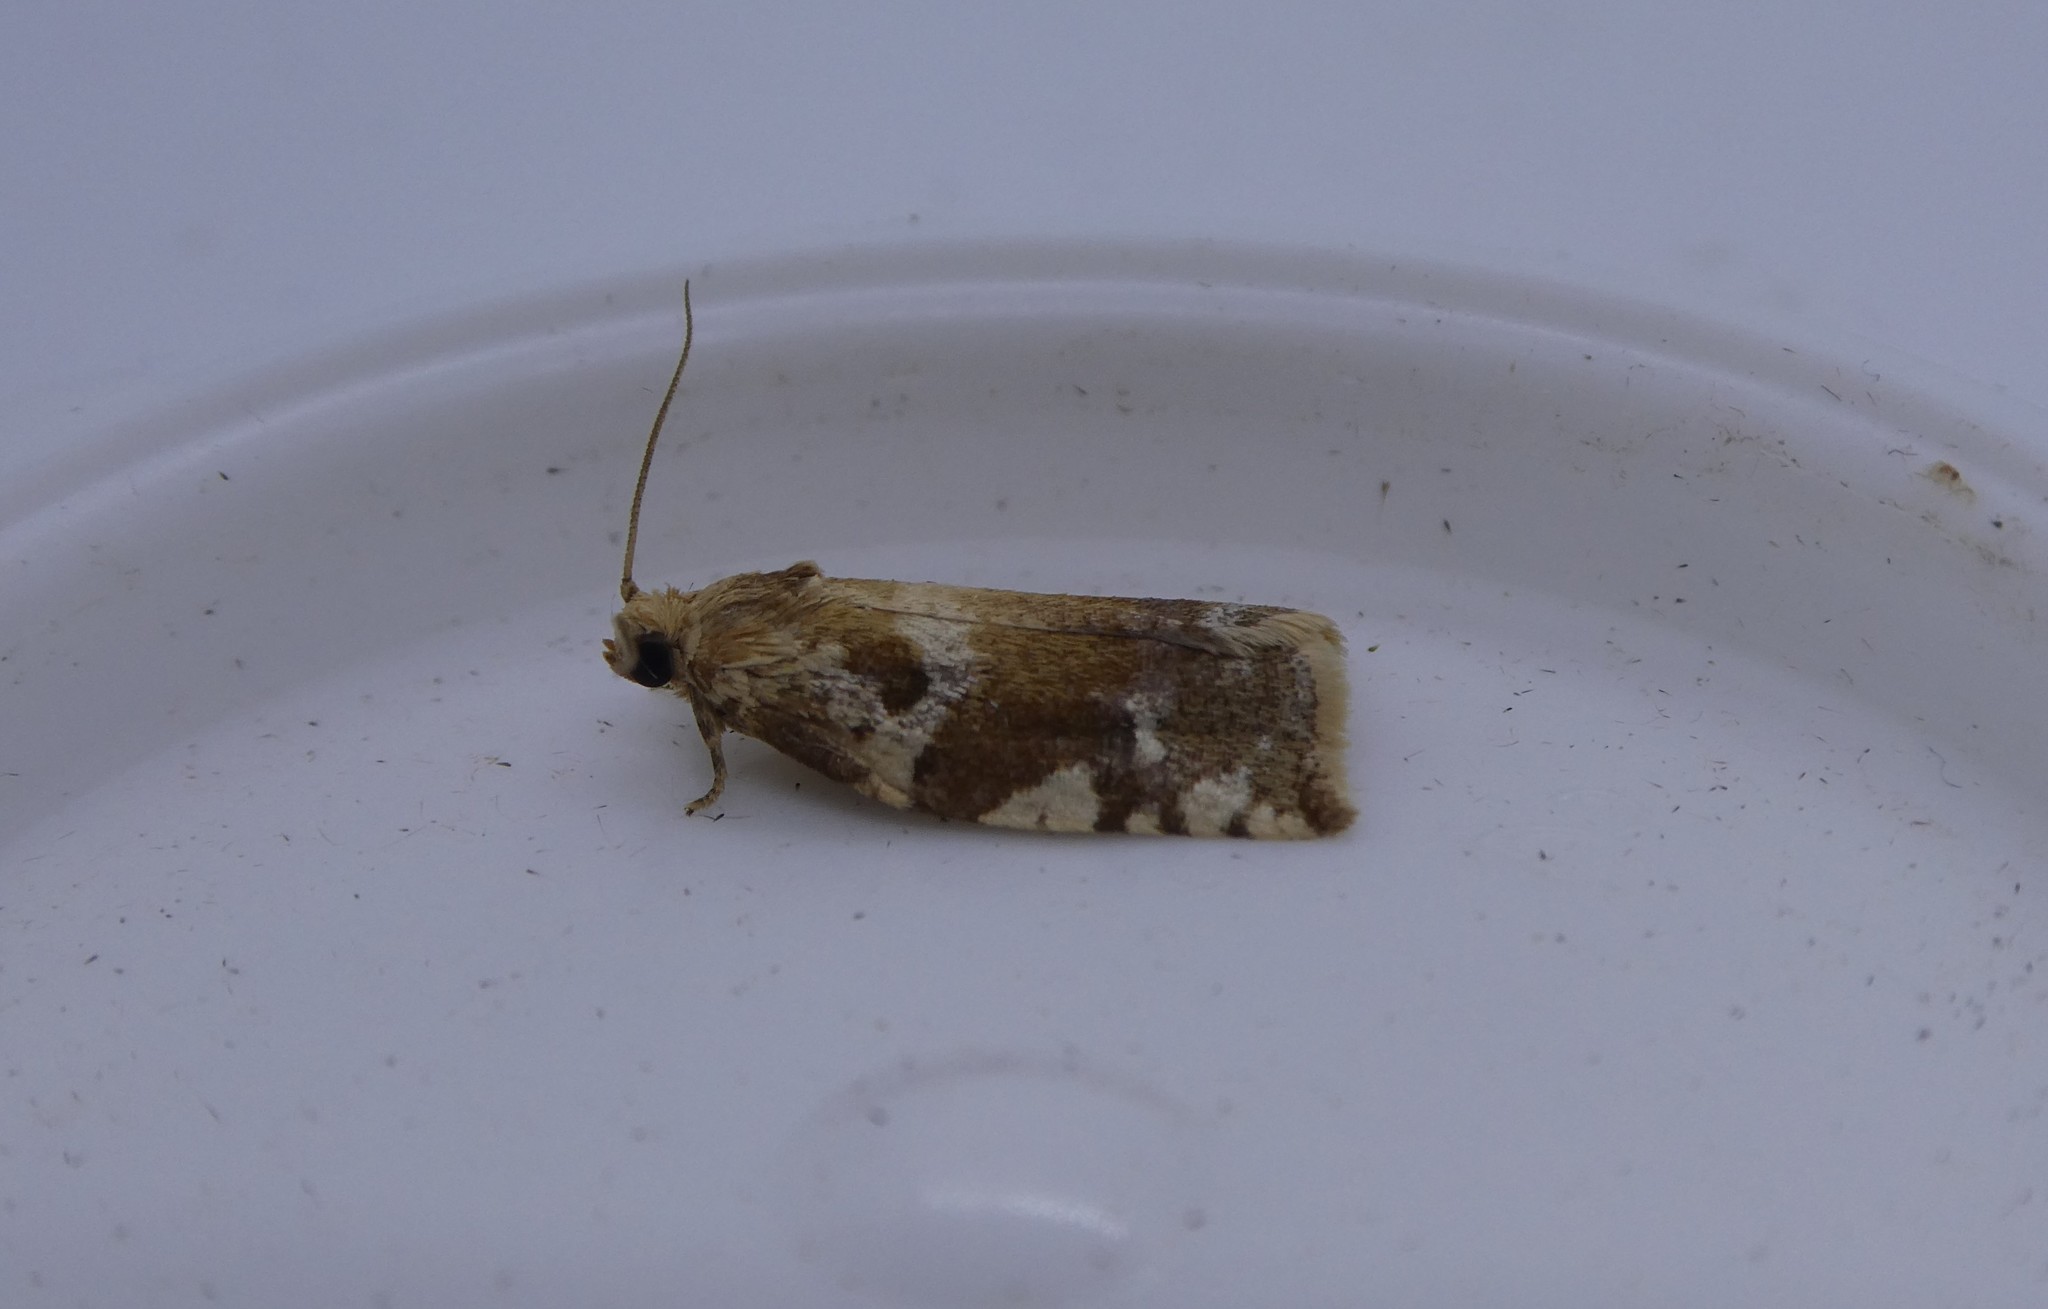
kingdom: Animalia
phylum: Arthropoda
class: Insecta
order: Lepidoptera
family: Tortricidae
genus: Archips
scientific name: Archips semiferanus
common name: Oak leafroller
